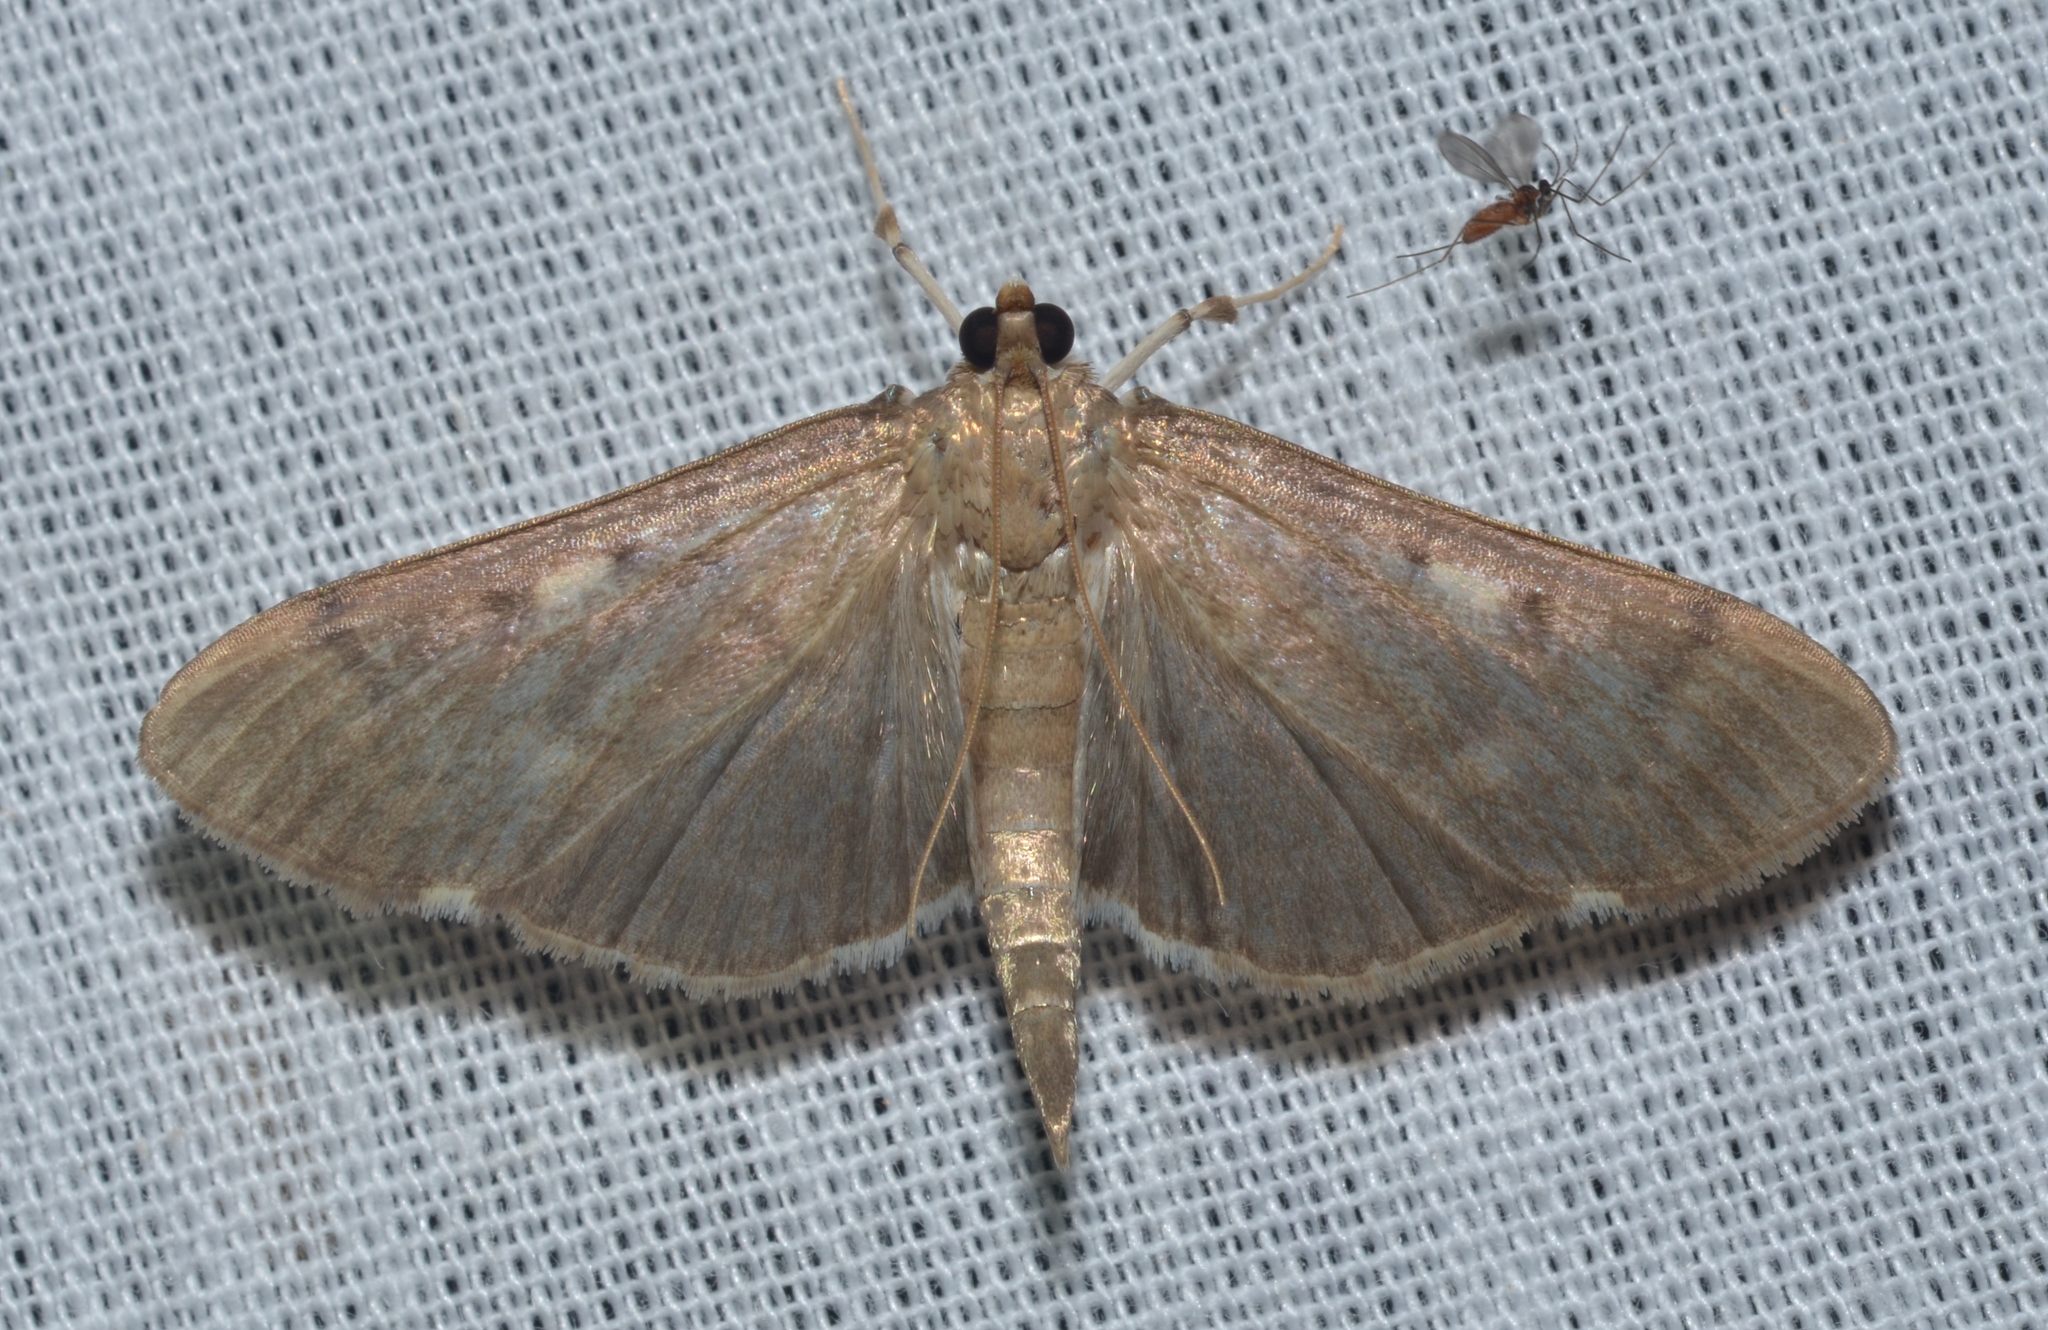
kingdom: Animalia
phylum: Arthropoda
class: Insecta
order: Lepidoptera
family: Crambidae
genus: Herpetogramma
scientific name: Herpetogramma sphingealis
